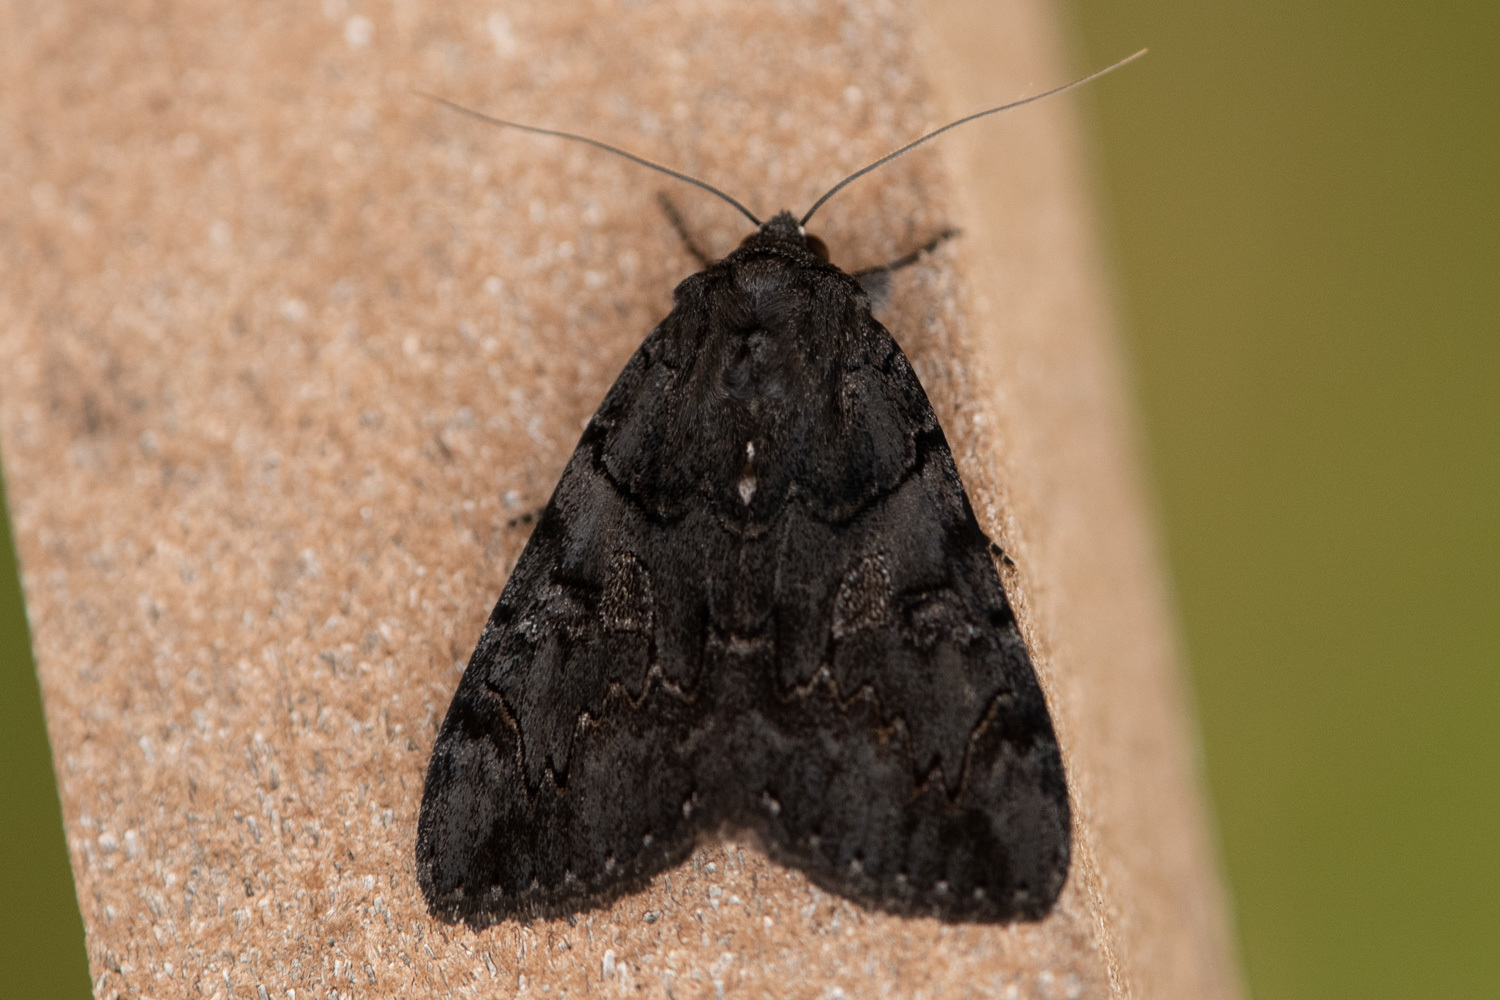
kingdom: Animalia
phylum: Arthropoda
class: Insecta
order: Lepidoptera
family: Erebidae
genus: Catocala
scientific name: Catocala antinympha
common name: Sweetfern underwing
